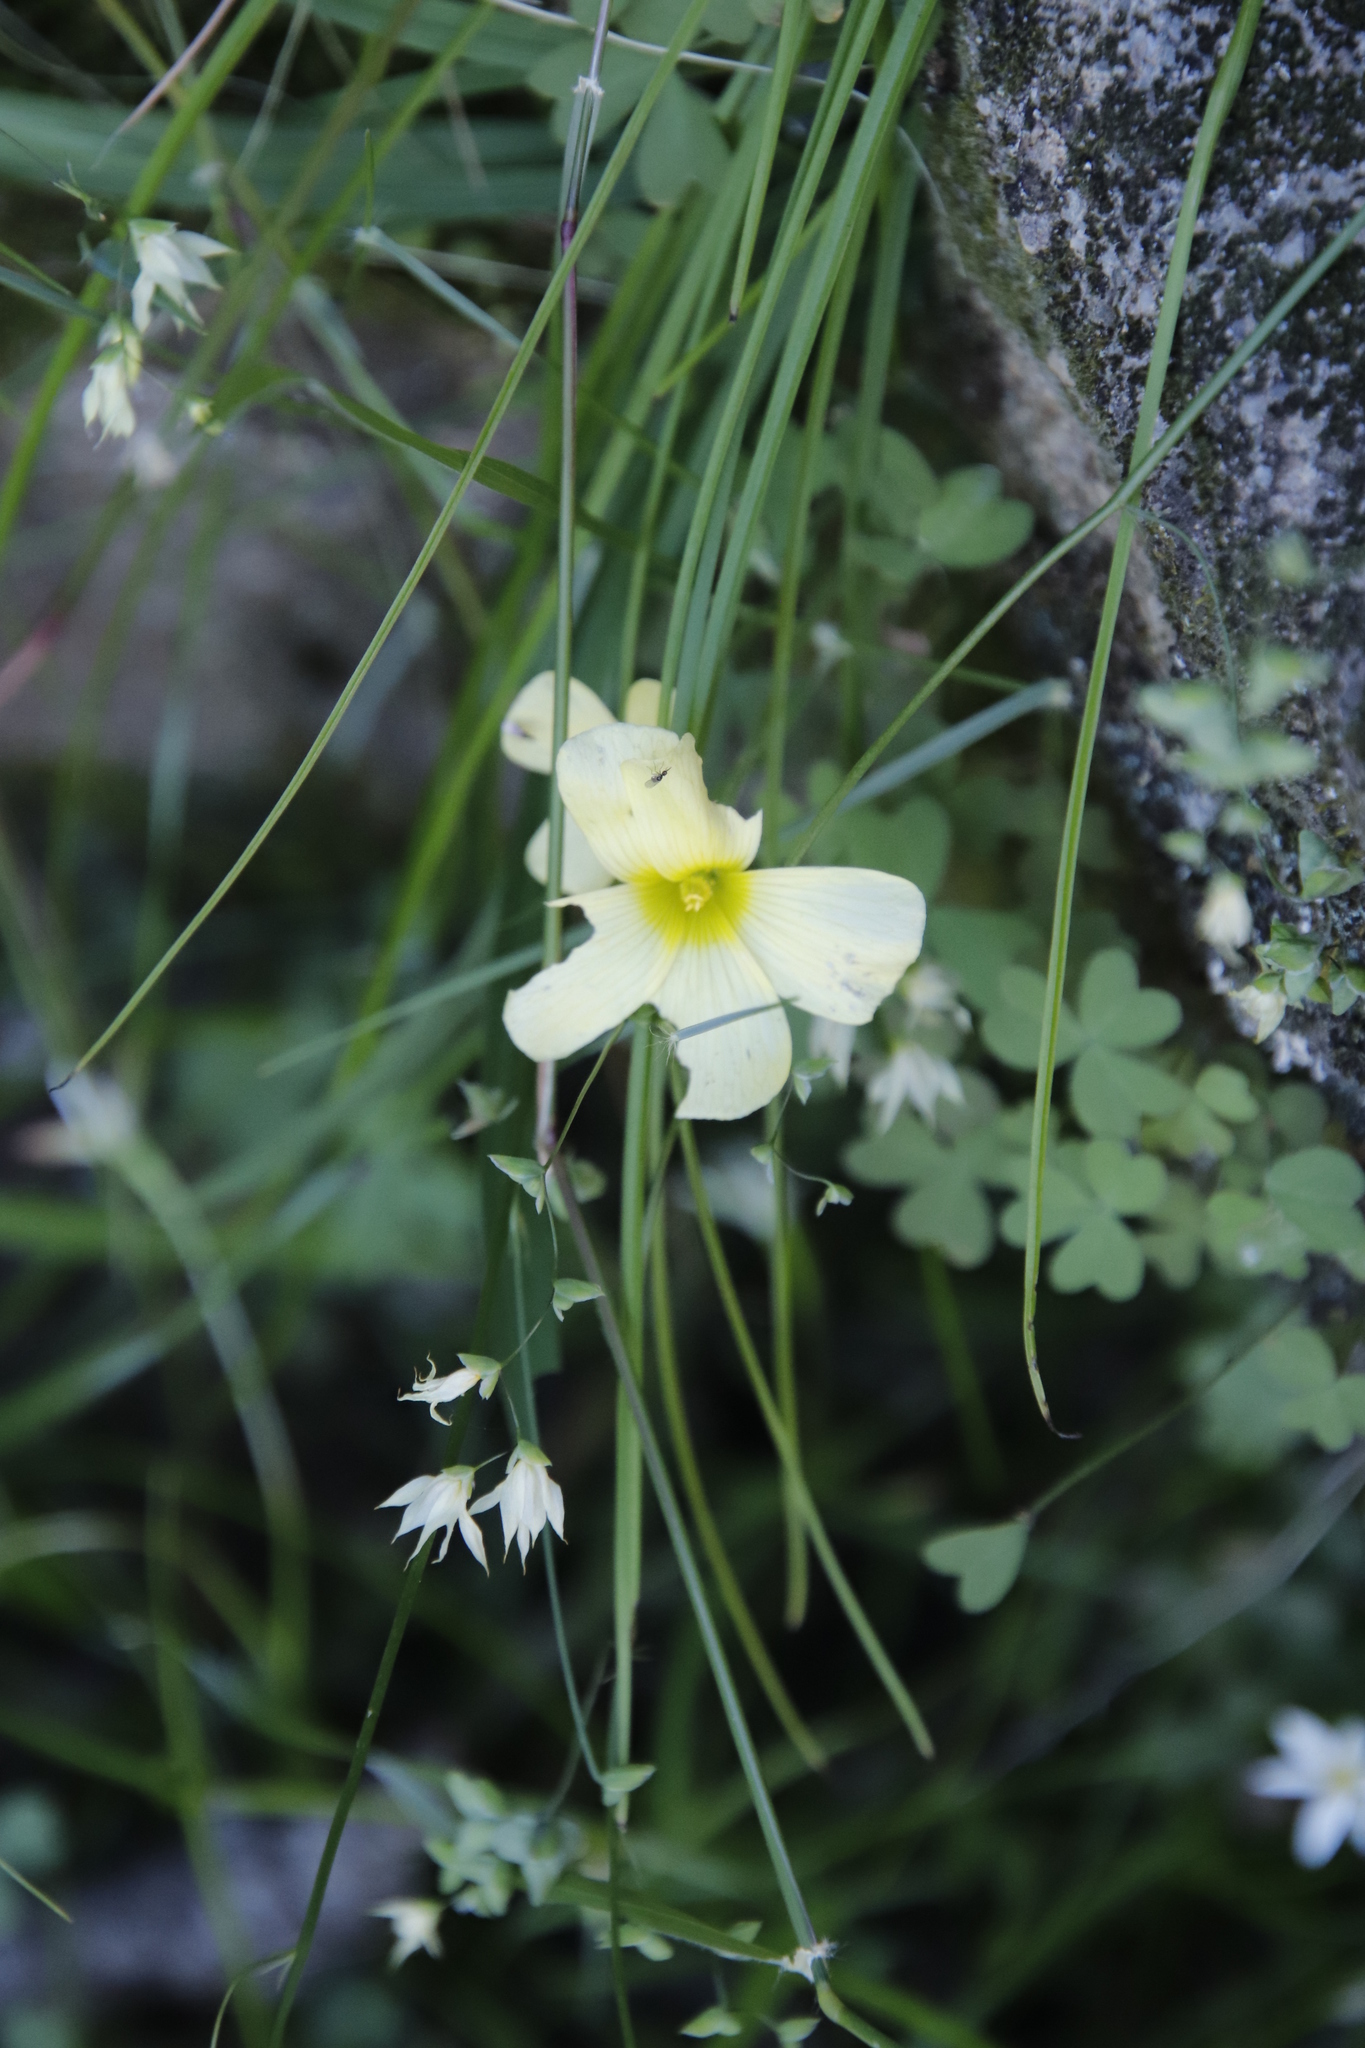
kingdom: Plantae
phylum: Tracheophyta
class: Liliopsida
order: Asparagales
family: Iridaceae
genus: Melasphaerula
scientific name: Melasphaerula graminea
